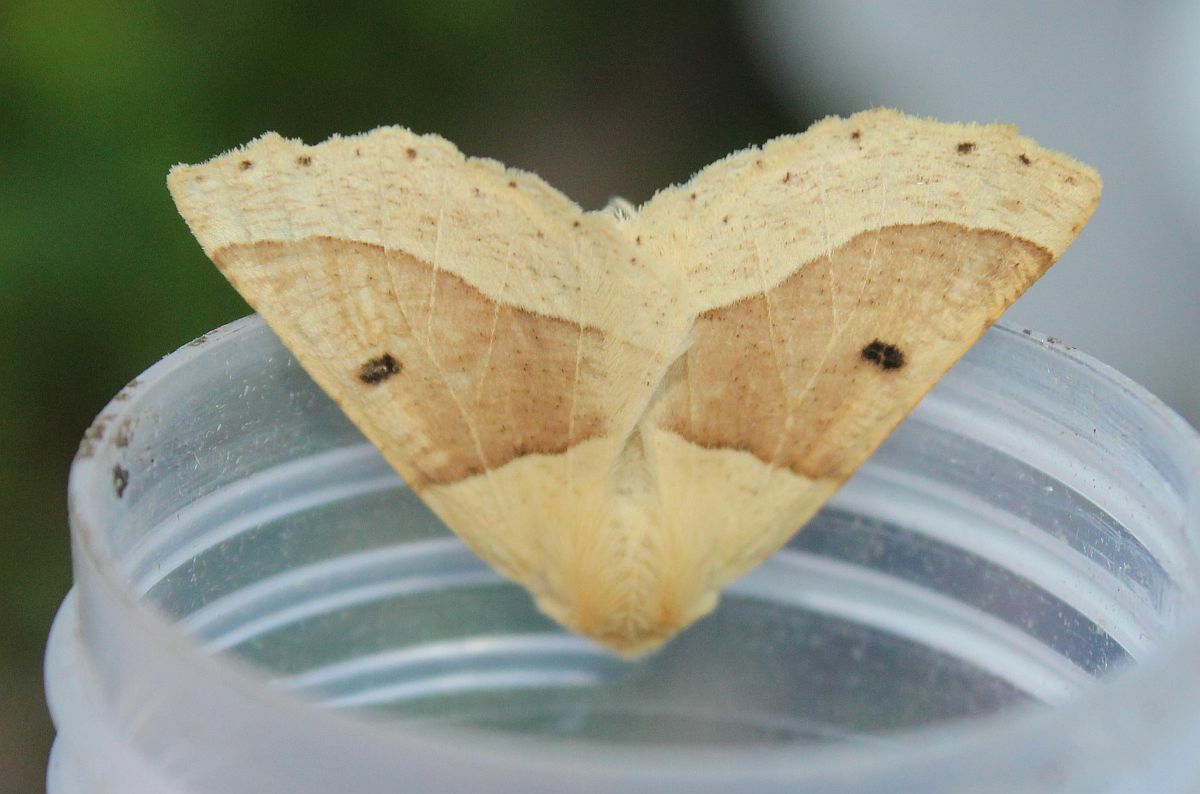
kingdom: Animalia
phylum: Arthropoda
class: Insecta
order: Lepidoptera
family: Geometridae
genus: Crocallis
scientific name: Crocallis elinguaria
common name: Scalloped oak
